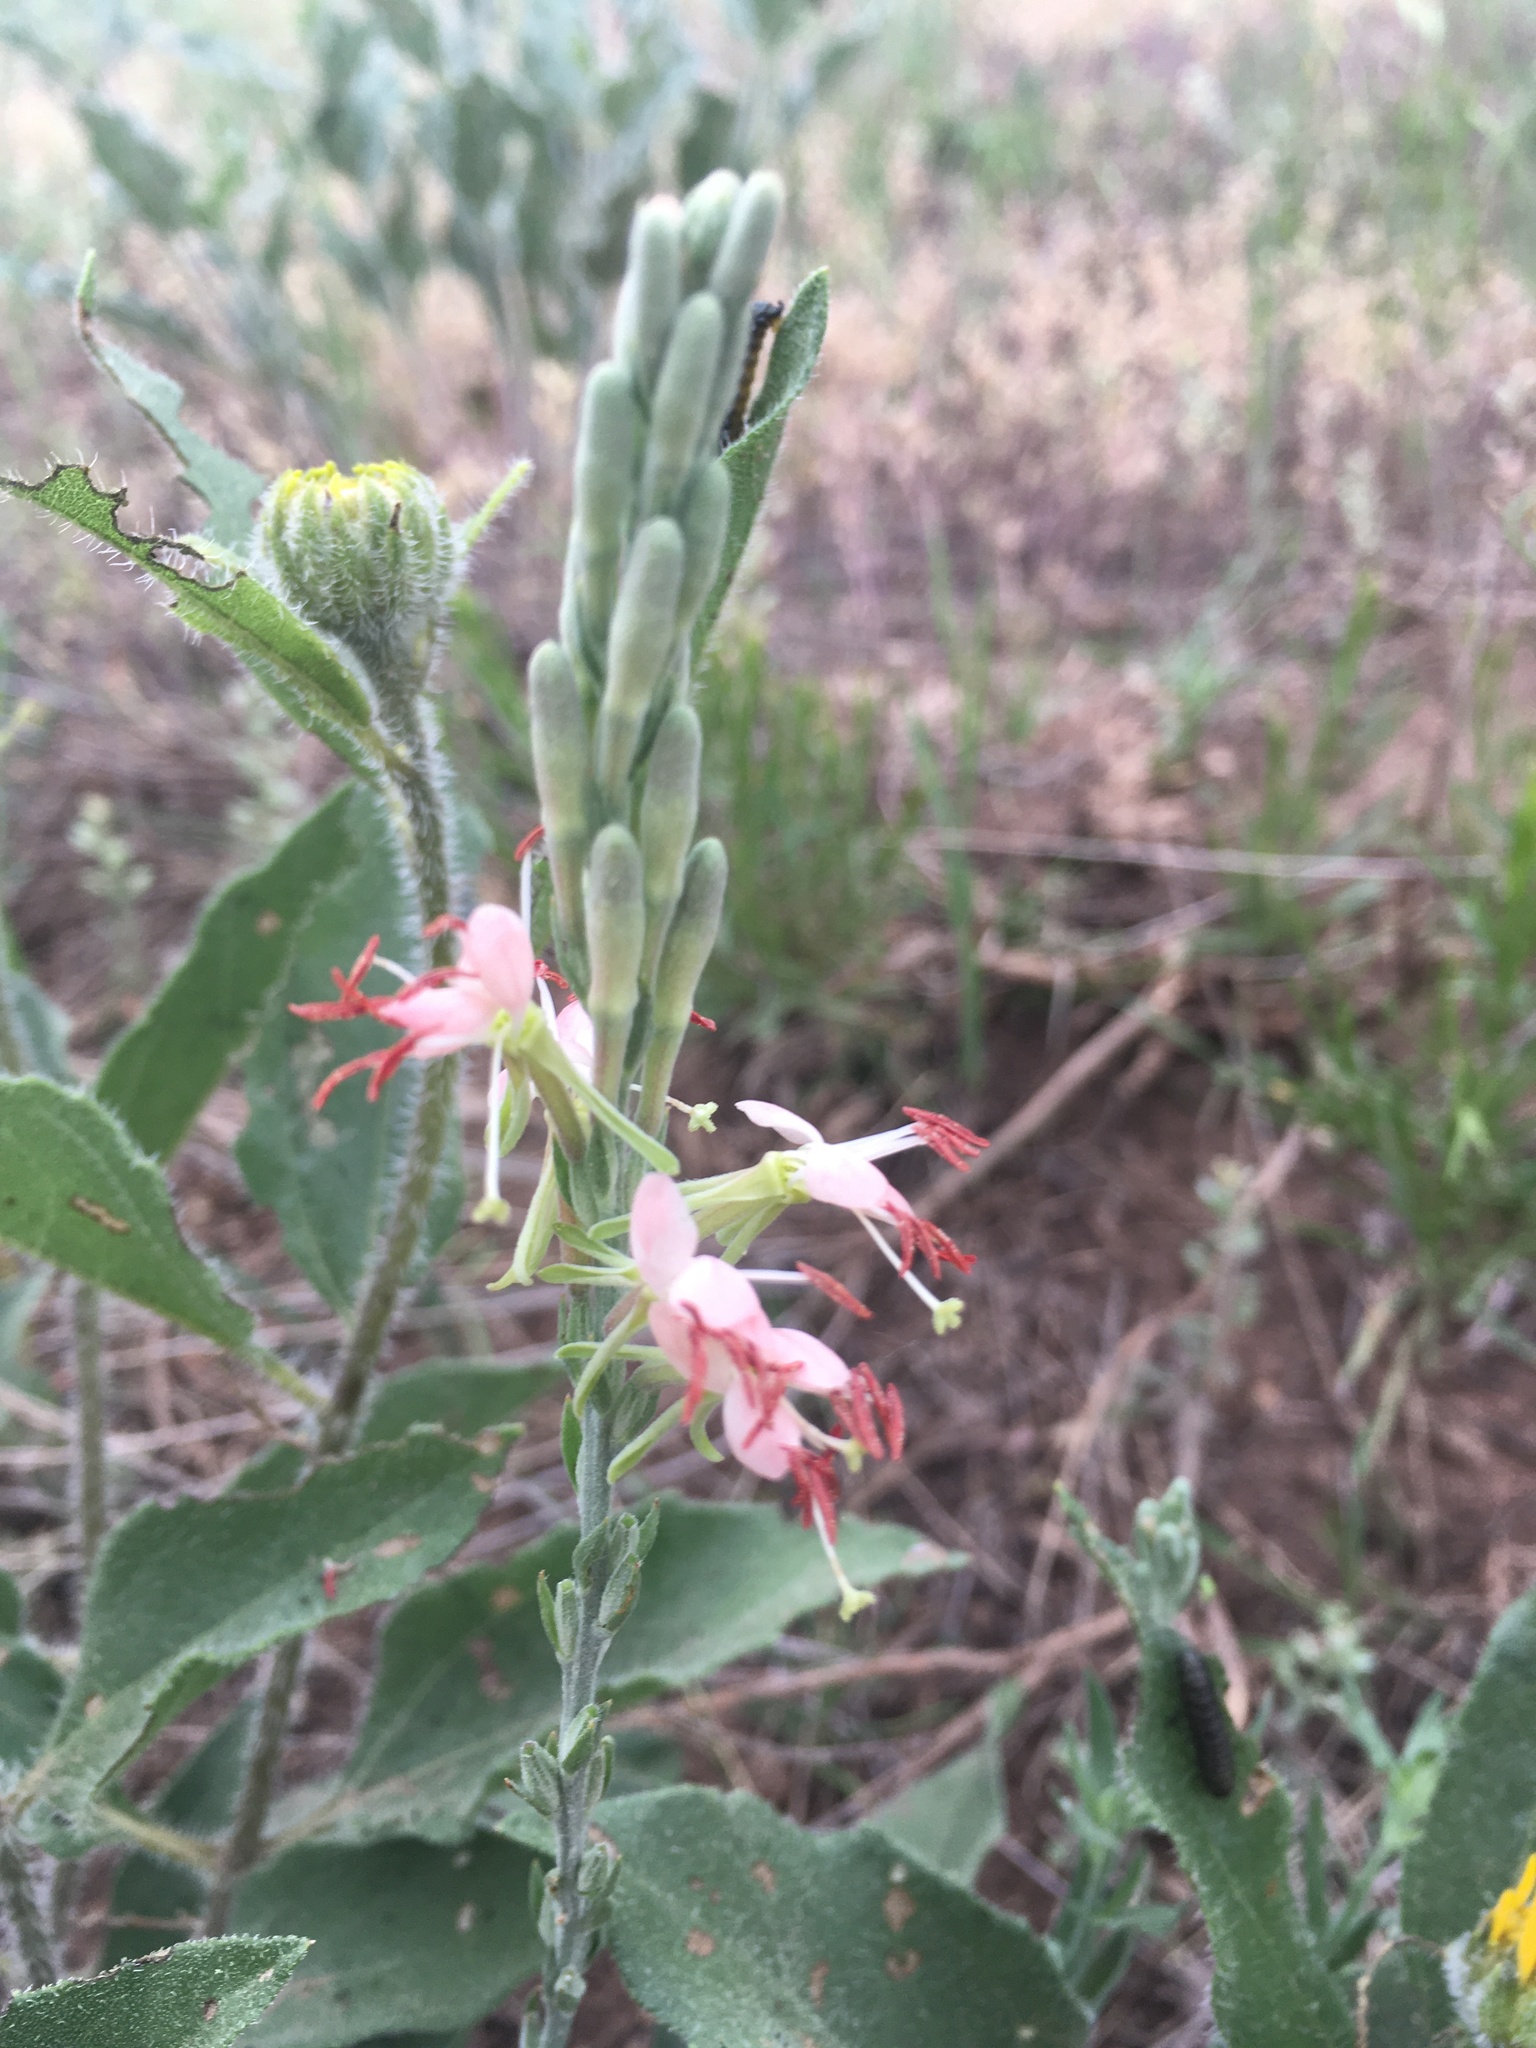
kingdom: Plantae
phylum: Tracheophyta
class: Magnoliopsida
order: Myrtales
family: Onagraceae
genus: Oenothera
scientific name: Oenothera suffrutescens
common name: Scarlet beeblossom
